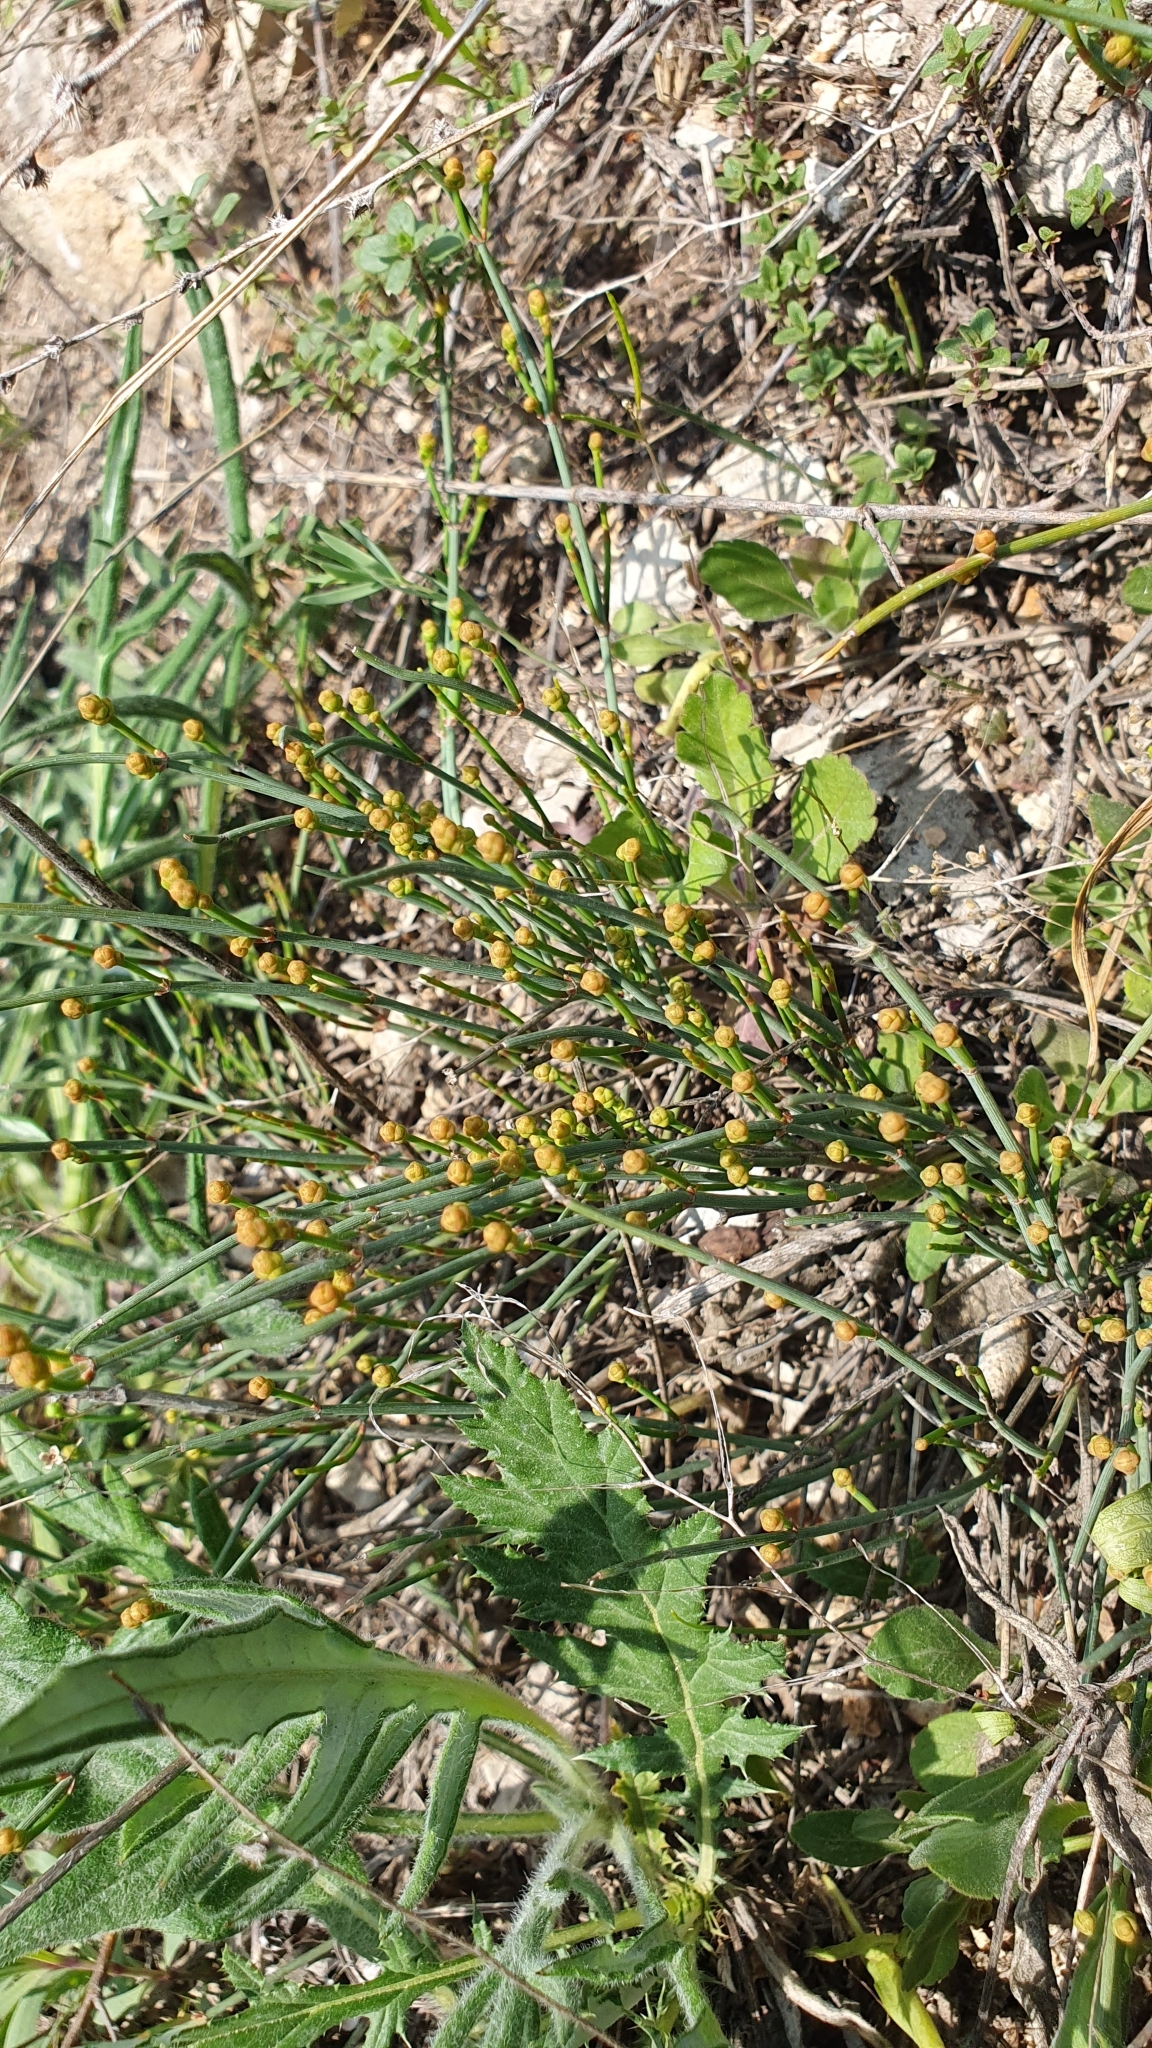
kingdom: Plantae
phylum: Tracheophyta
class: Gnetopsida
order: Ephedrales
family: Ephedraceae
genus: Ephedra
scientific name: Ephedra distachya
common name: Sea grape
